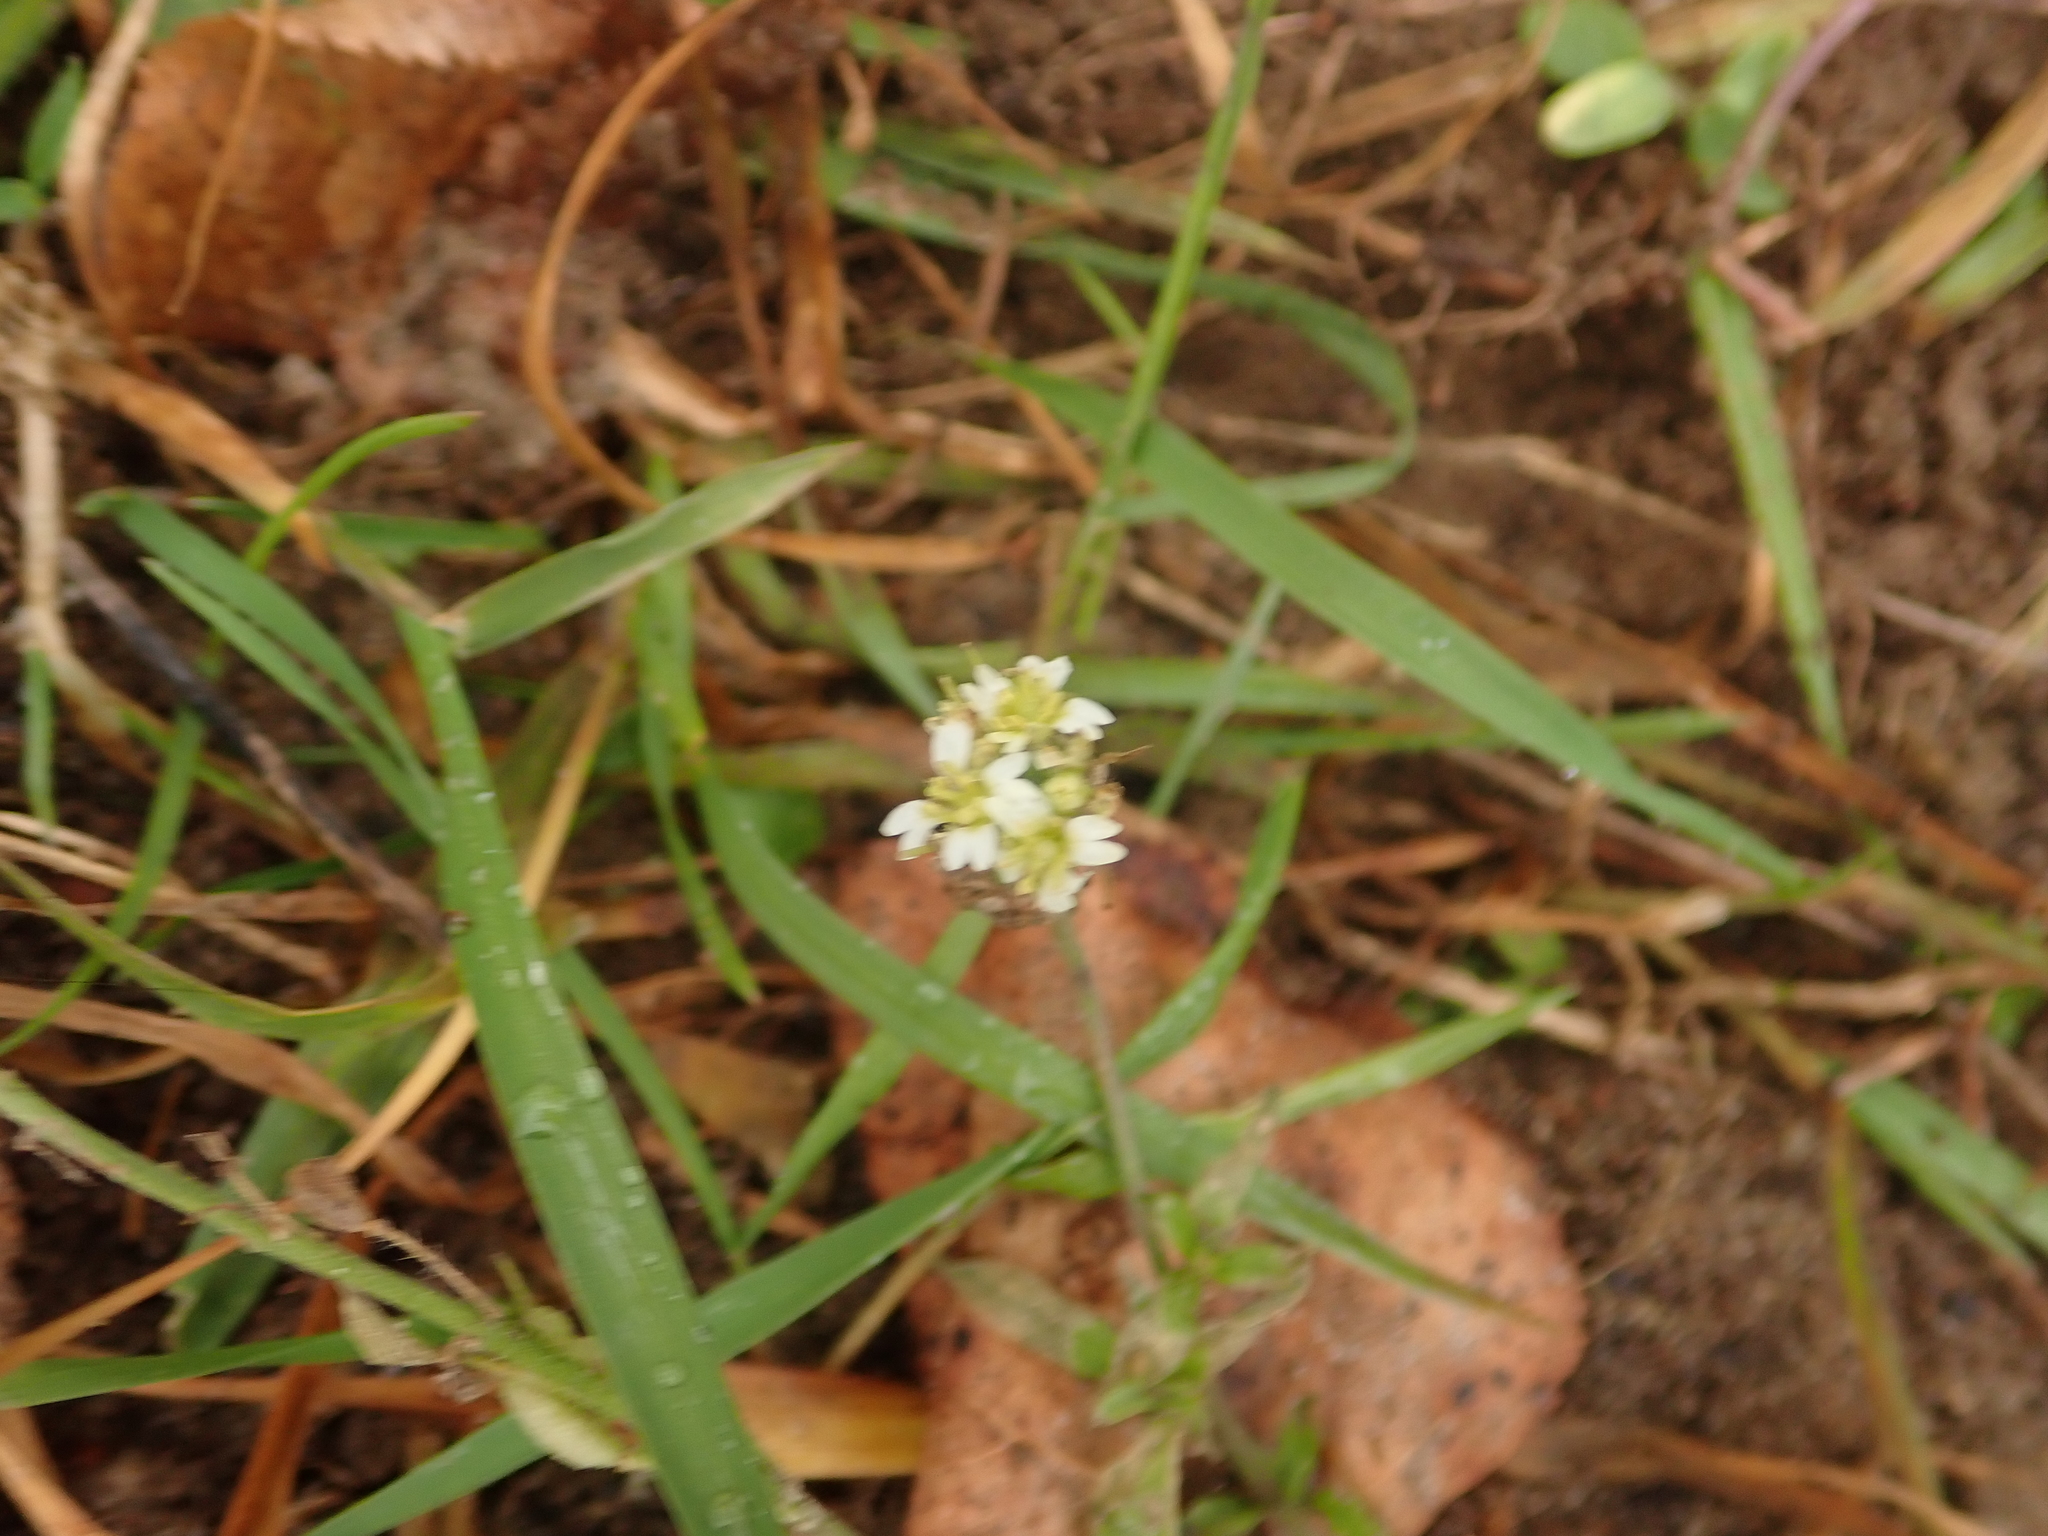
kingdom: Plantae
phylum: Tracheophyta
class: Magnoliopsida
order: Brassicales
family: Brassicaceae
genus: Berteroa
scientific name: Berteroa incana
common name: Hoary alison
